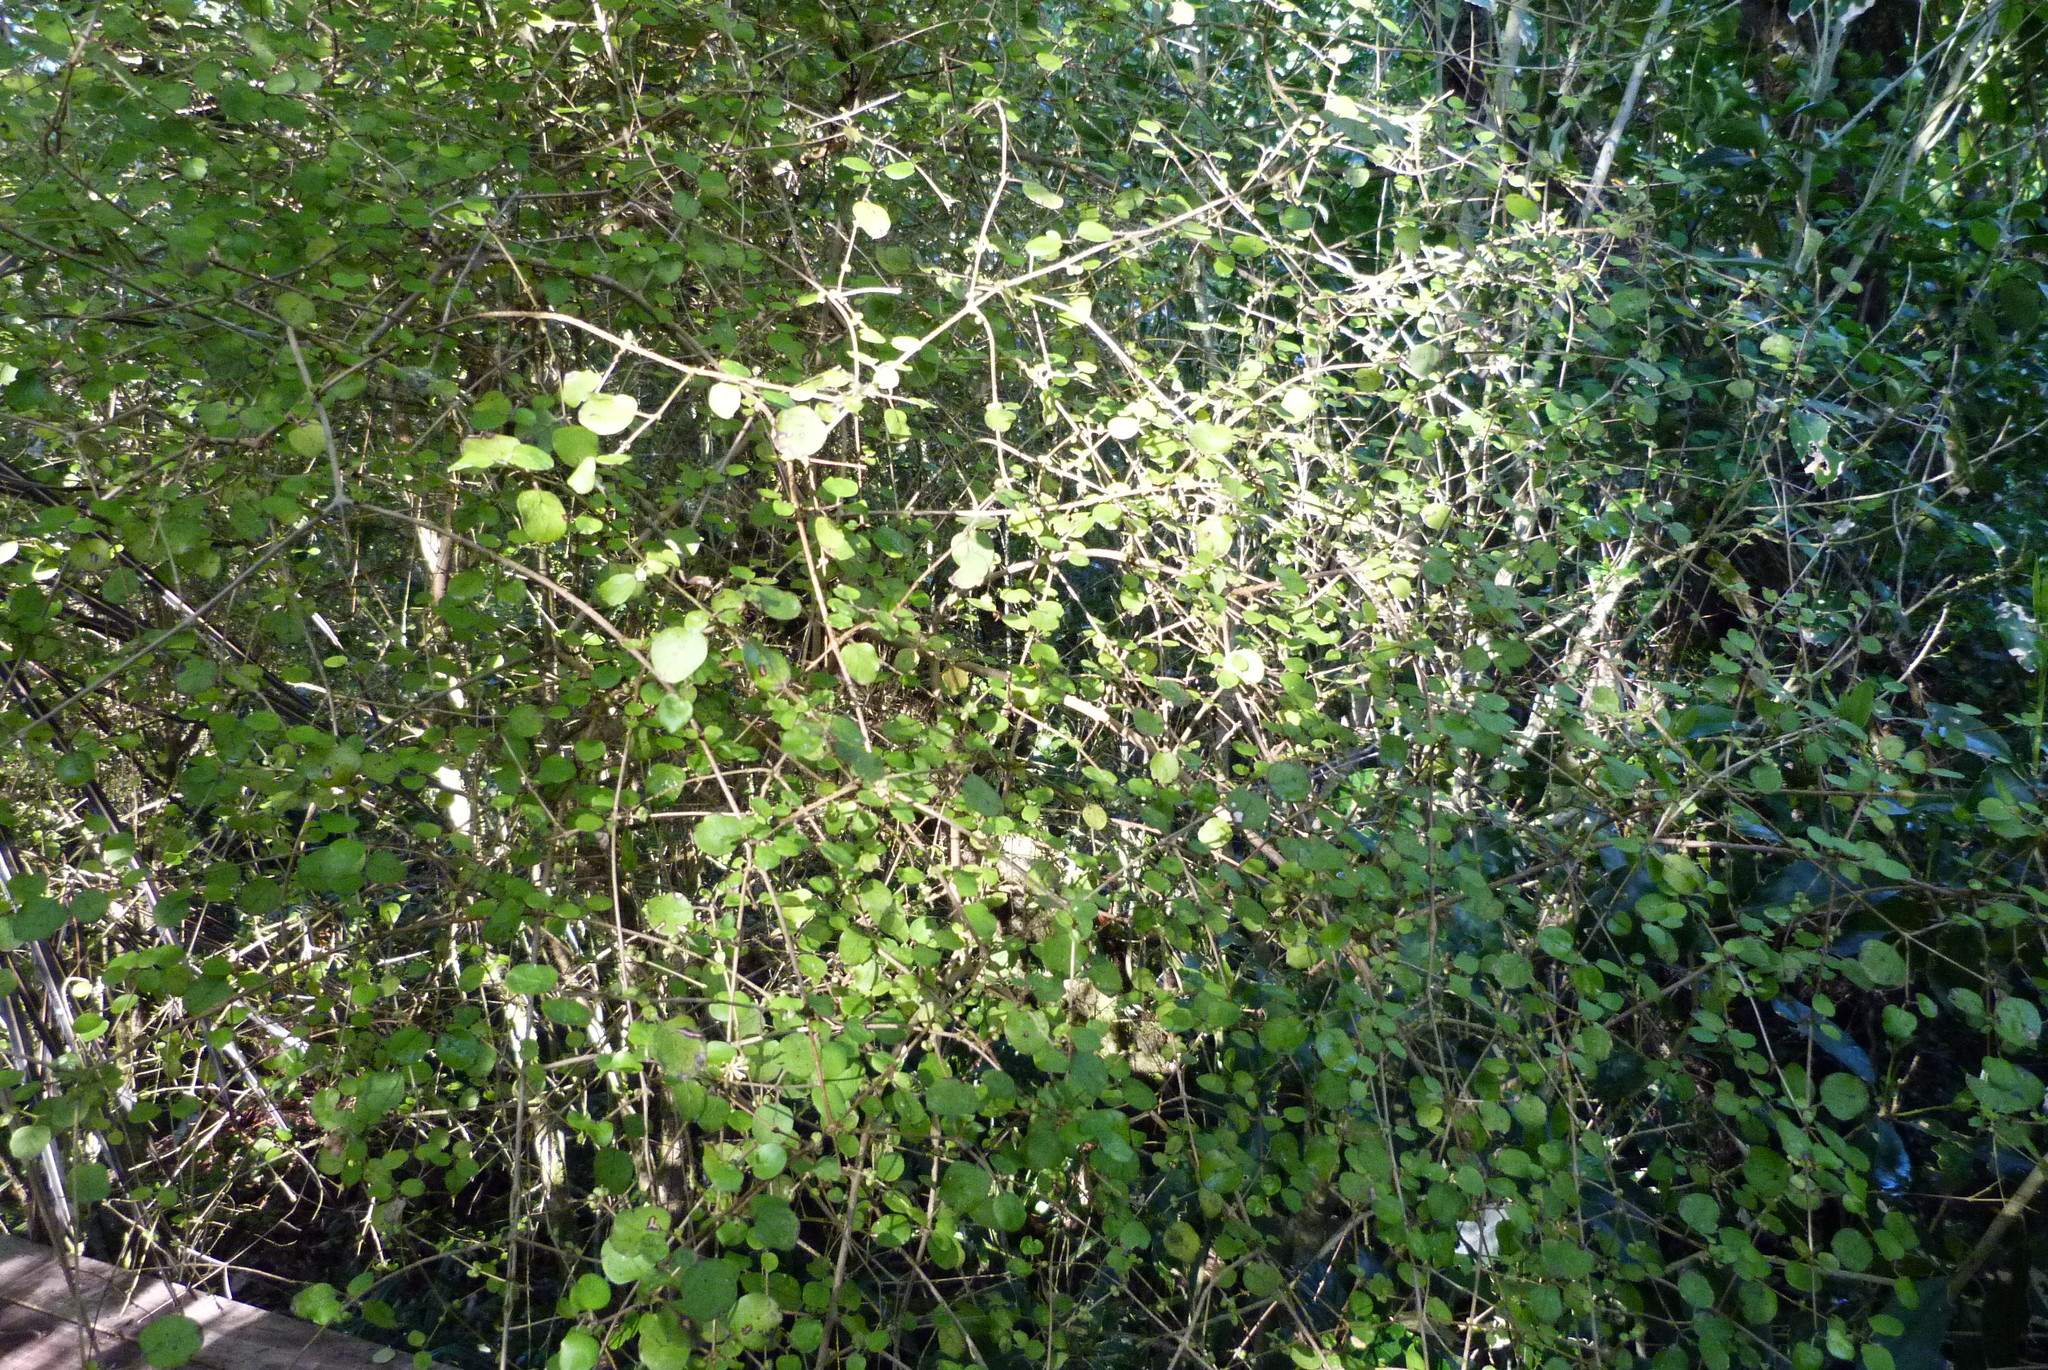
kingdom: Plantae
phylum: Tracheophyta
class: Magnoliopsida
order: Gentianales
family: Rubiaceae
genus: Coprosma
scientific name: Coprosma rotundifolia
